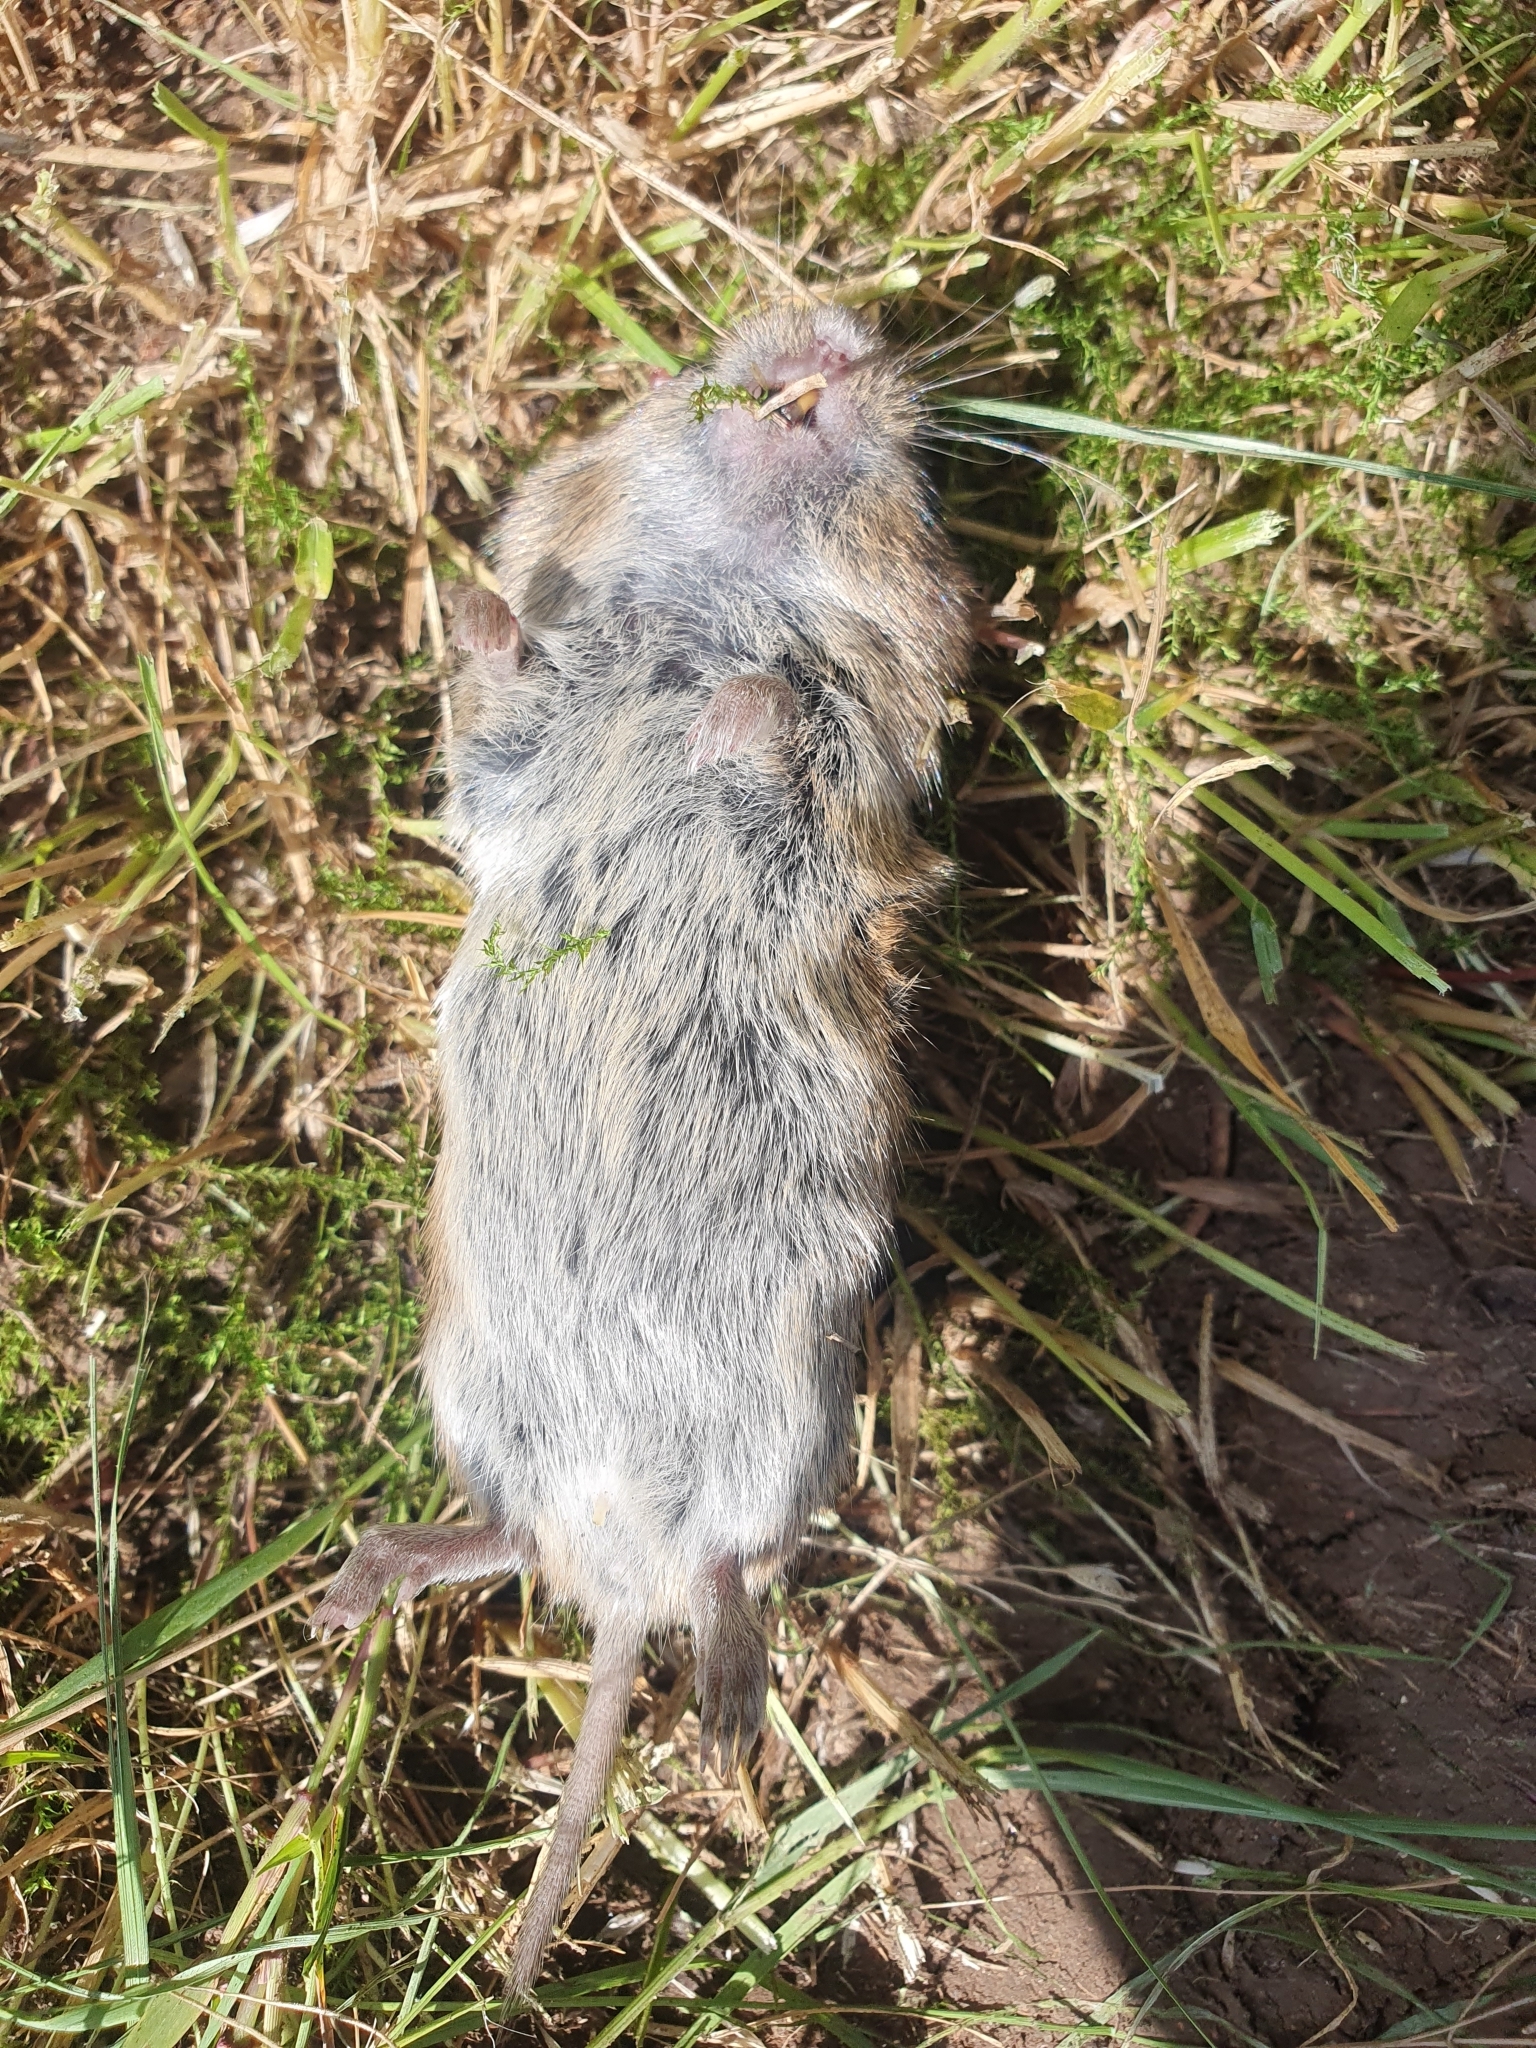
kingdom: Animalia
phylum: Chordata
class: Mammalia
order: Rodentia
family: Cricetidae
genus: Microtus
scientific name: Microtus agrestis
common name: Field vole
